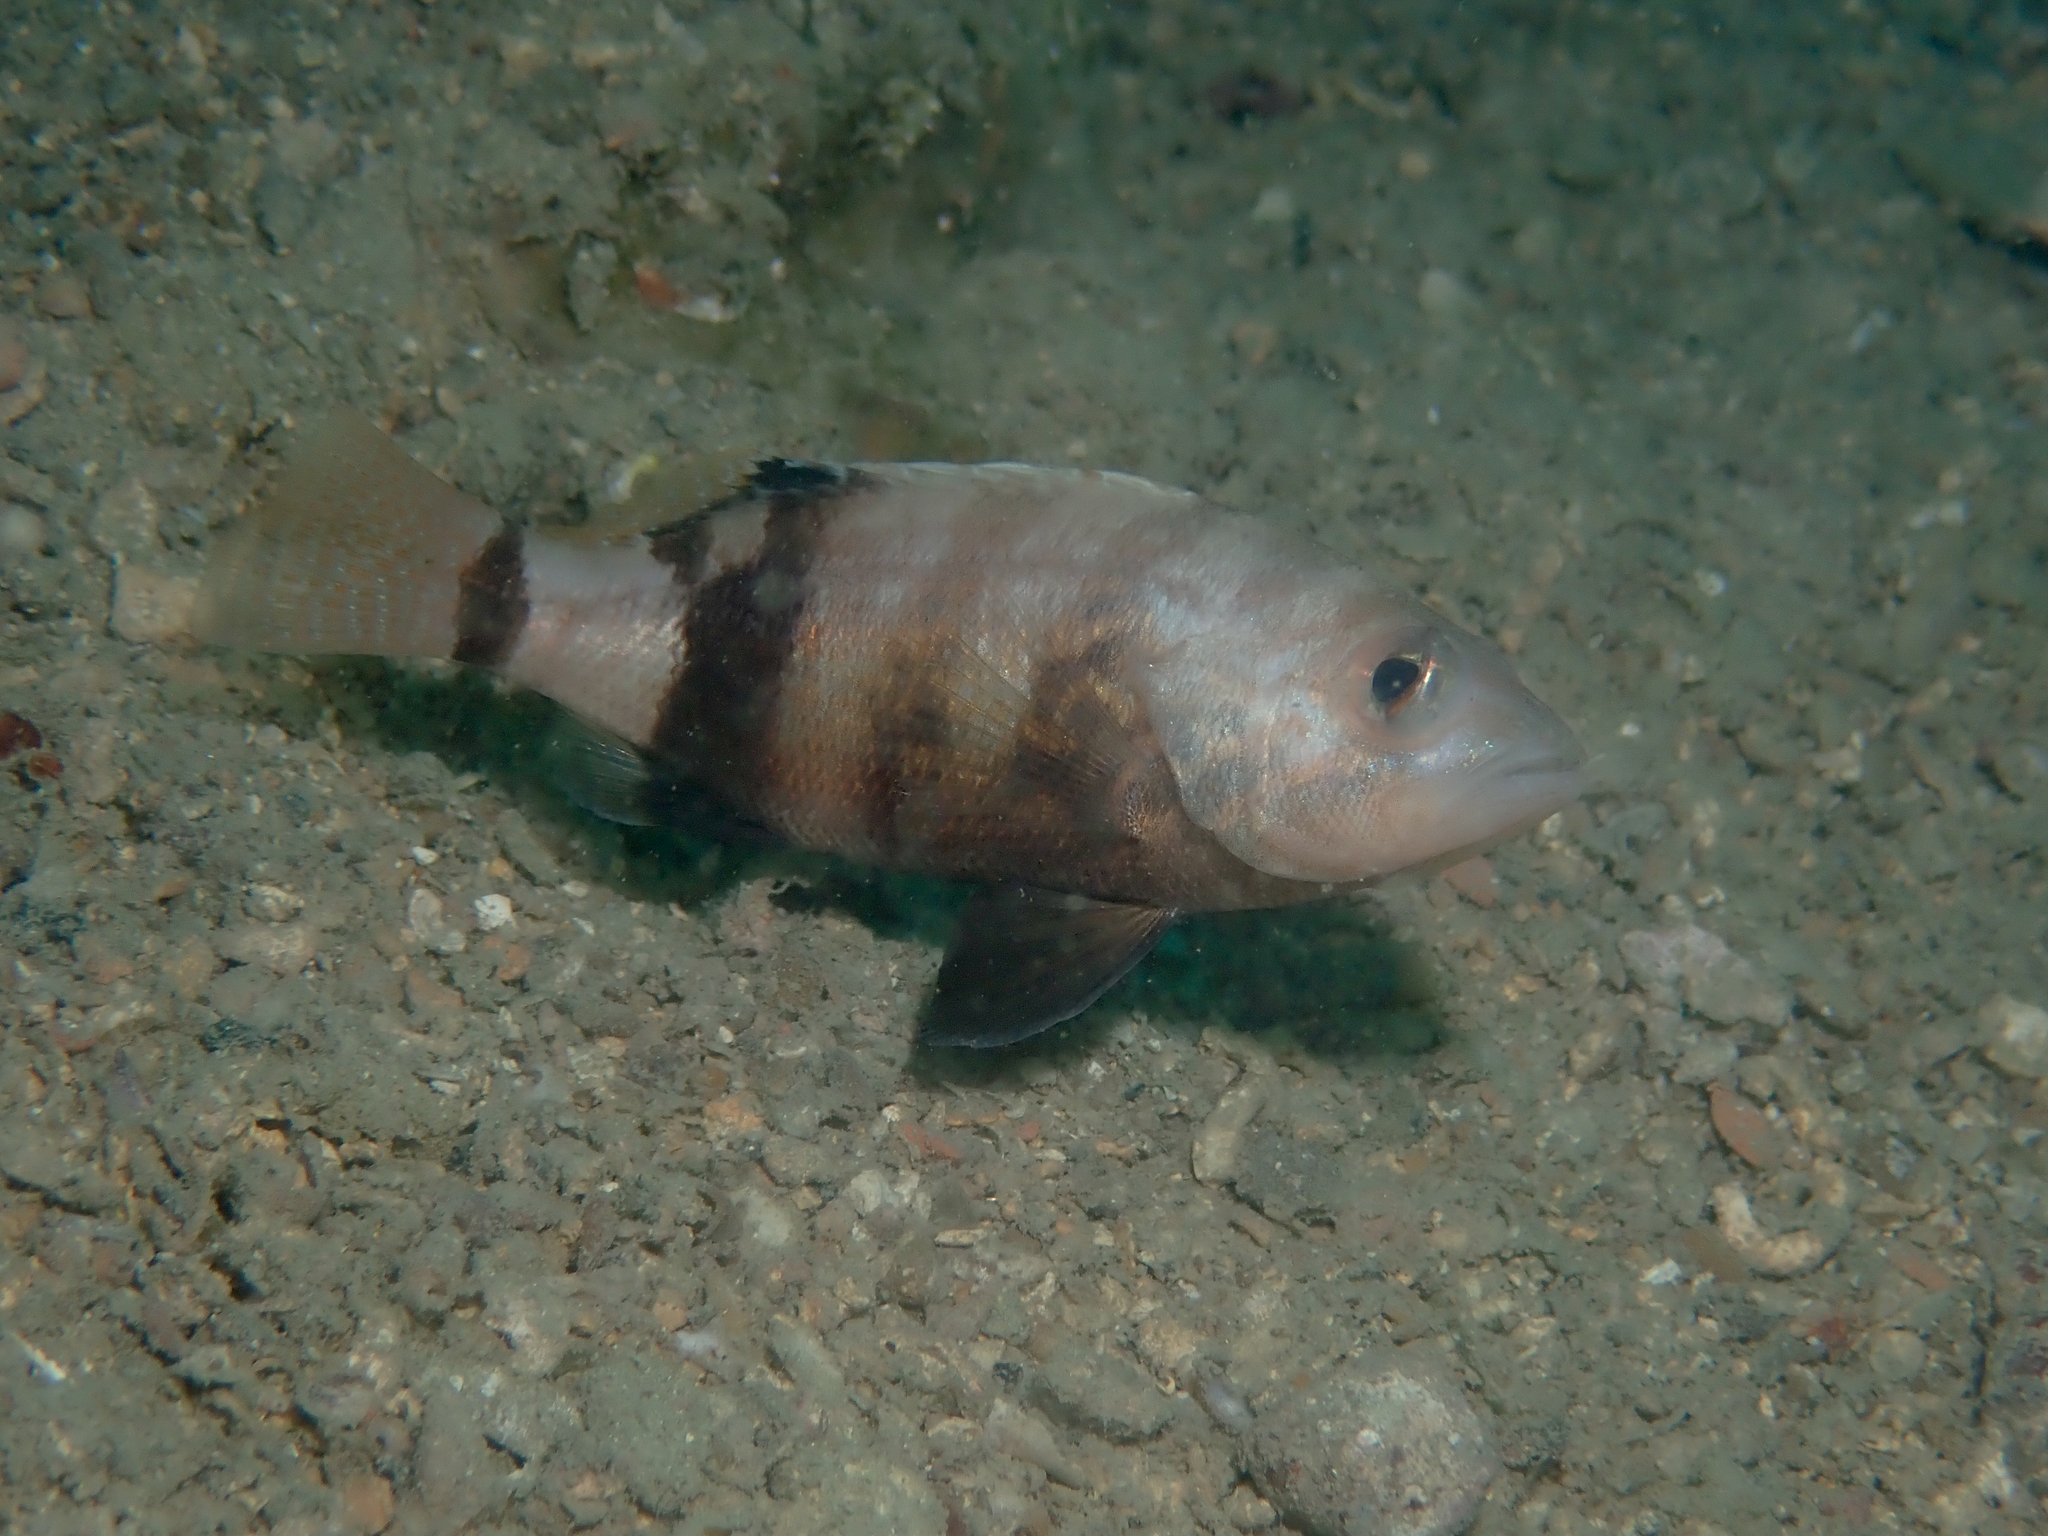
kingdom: Animalia
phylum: Chordata
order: Perciformes
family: Serranidae
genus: Serranus
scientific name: Serranus hepatus
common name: Brown comber
